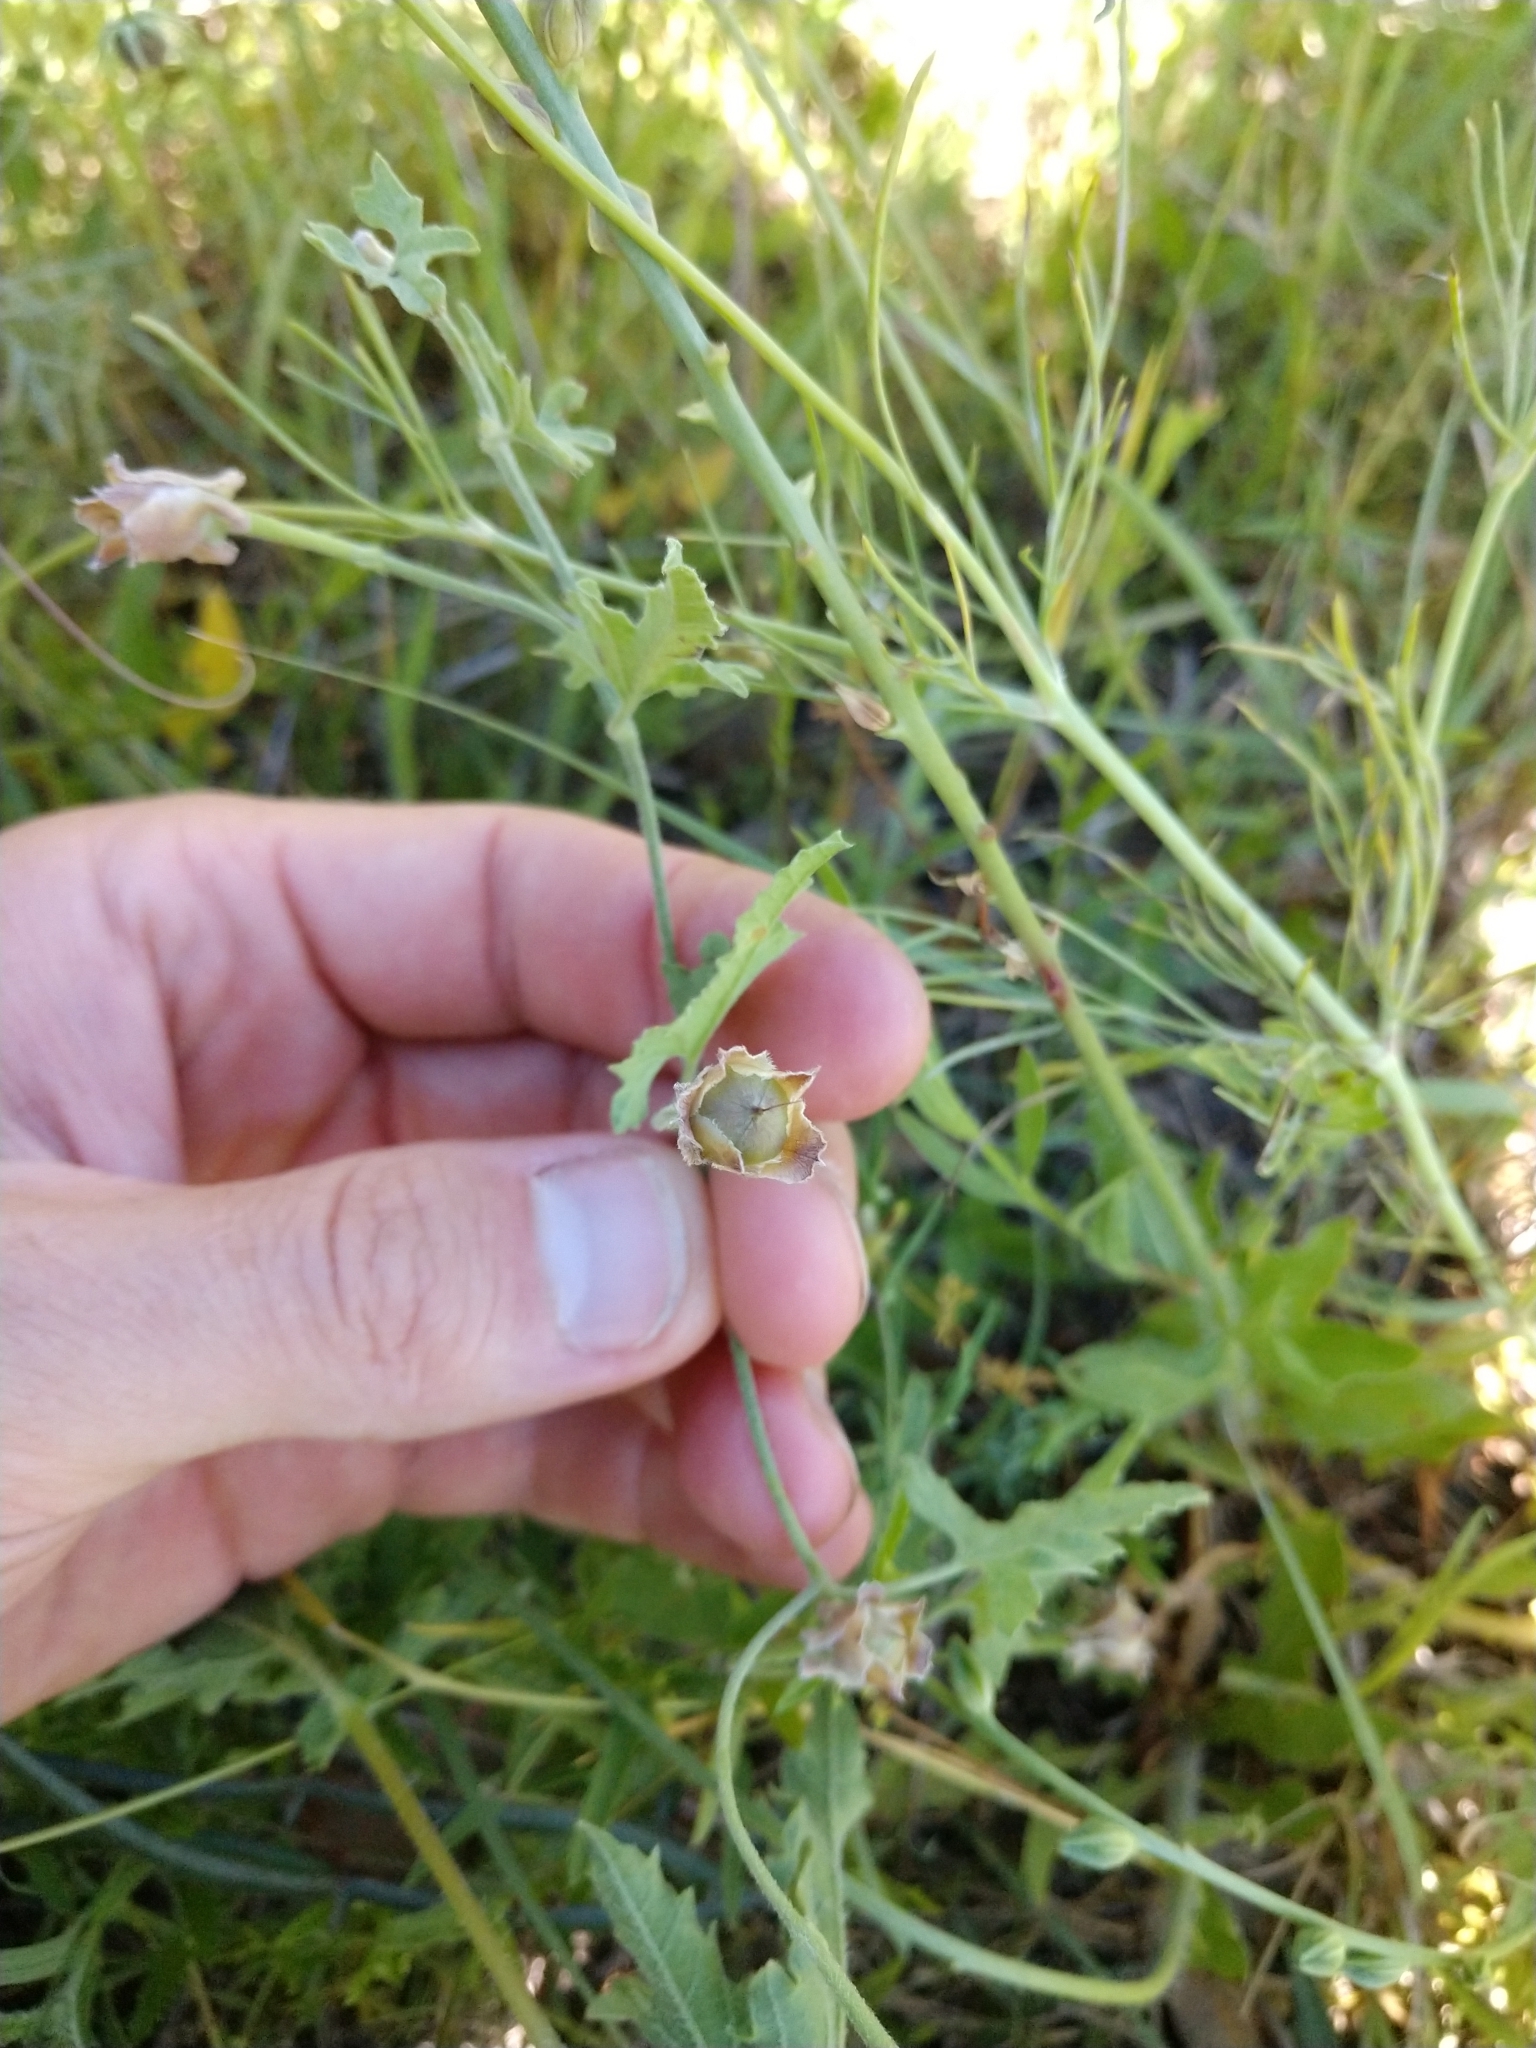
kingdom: Plantae
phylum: Tracheophyta
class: Magnoliopsida
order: Solanales
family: Convolvulaceae
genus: Convolvulus
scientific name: Convolvulus equitans
